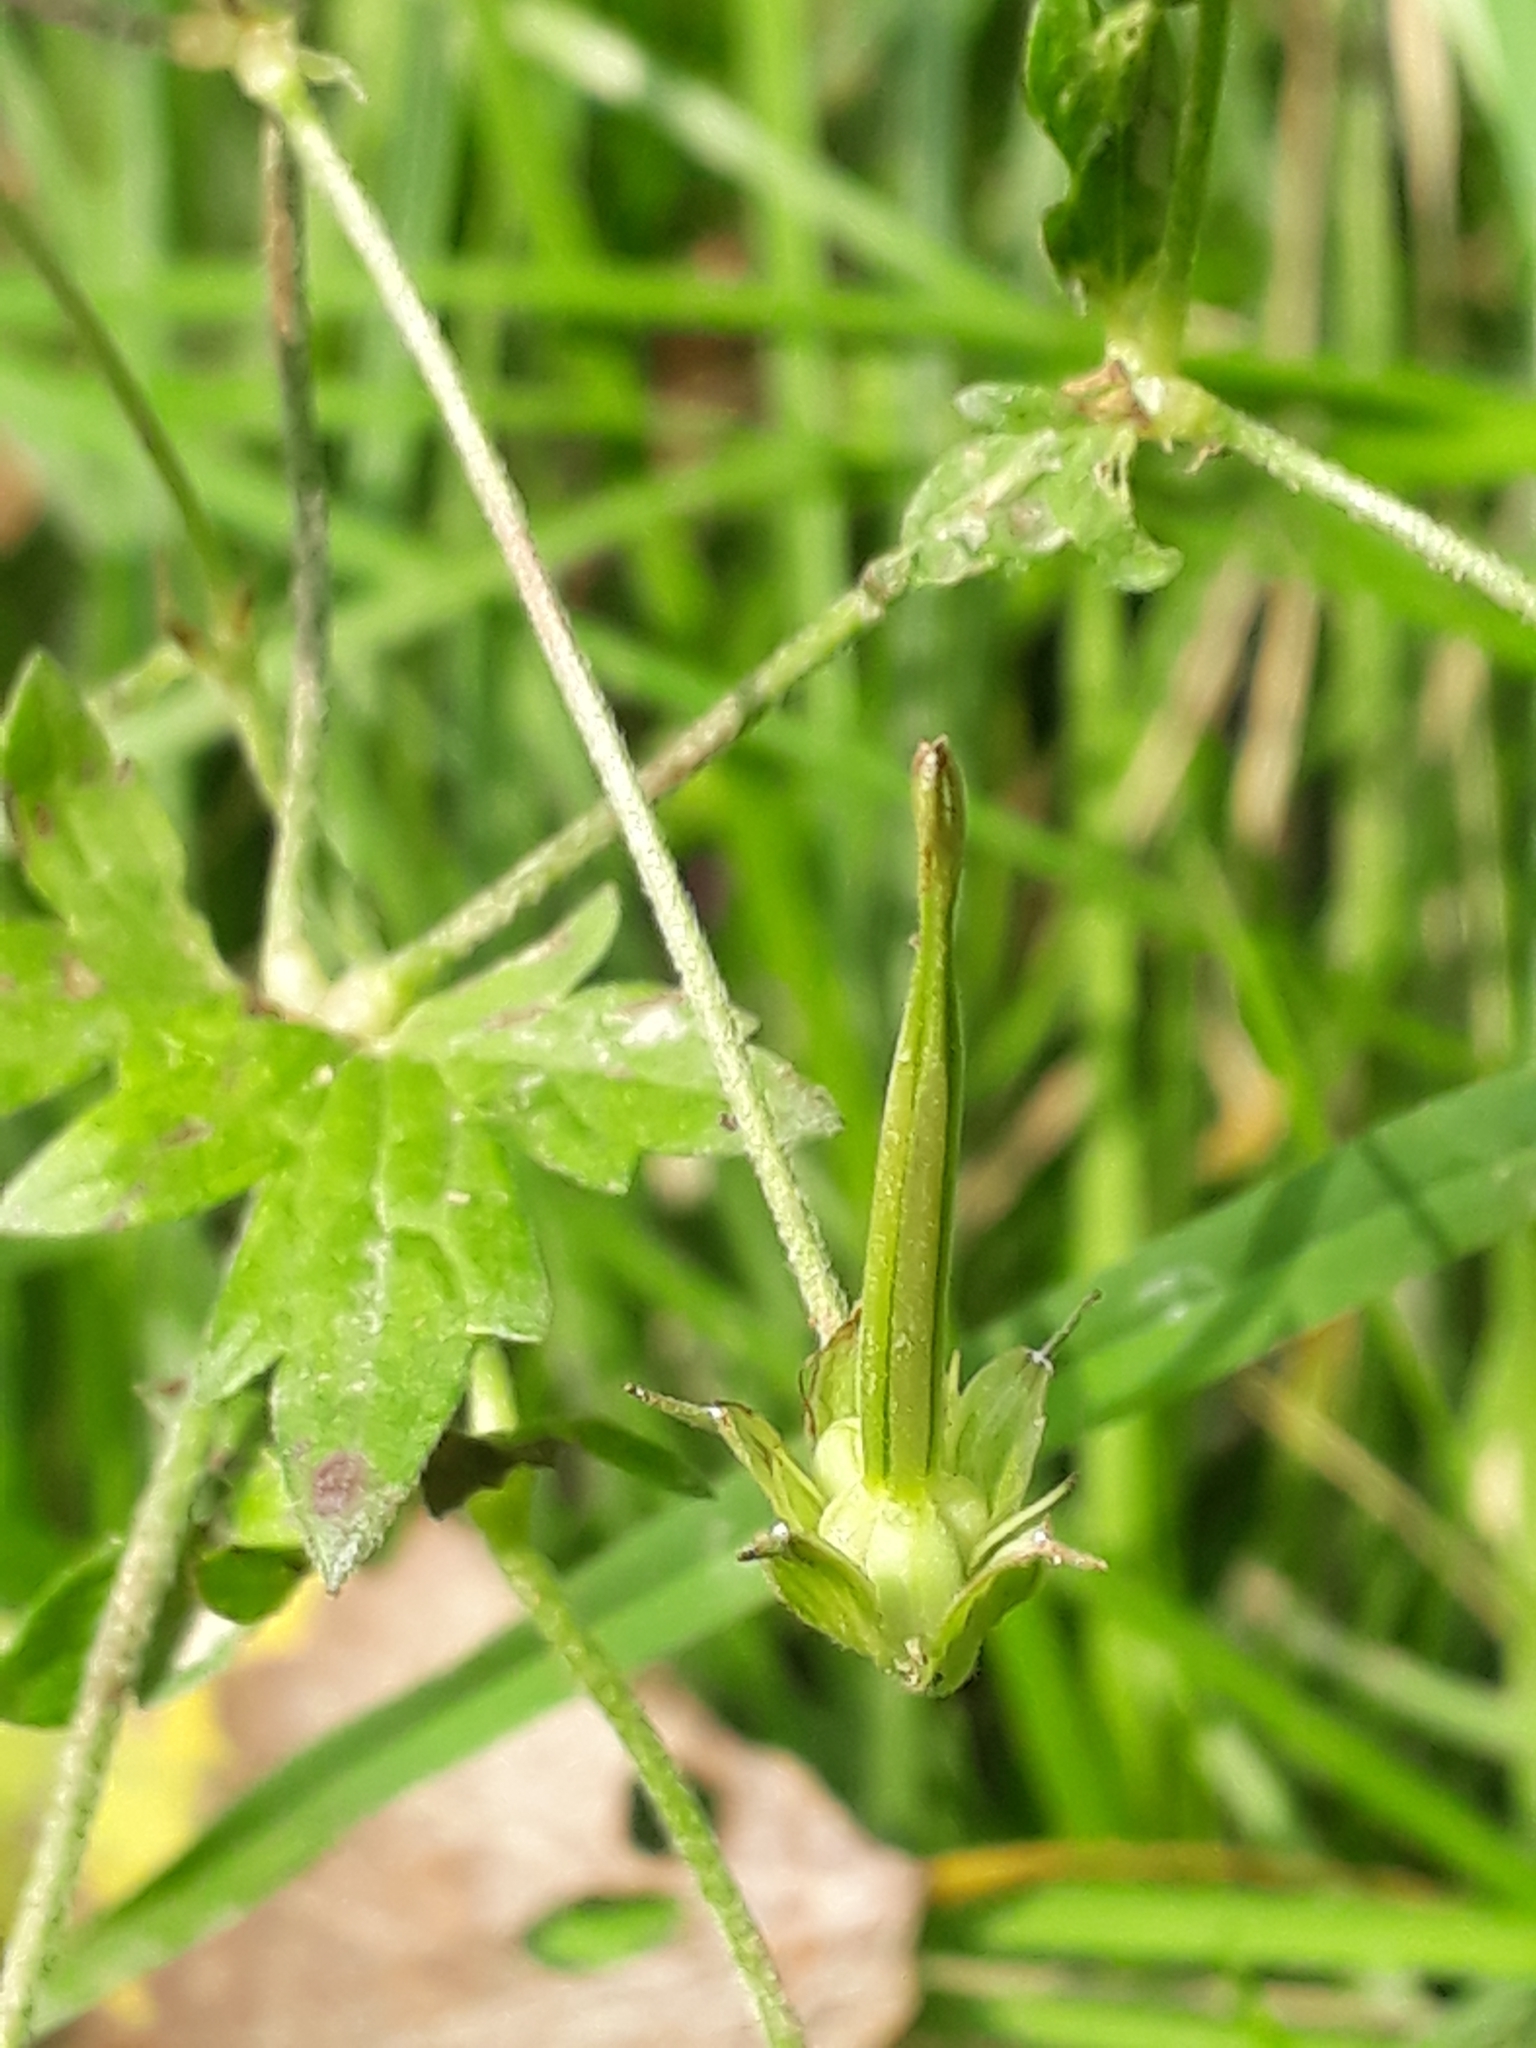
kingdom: Plantae
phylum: Tracheophyta
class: Magnoliopsida
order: Geraniales
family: Geraniaceae
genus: Geranium
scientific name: Geranium palustre
